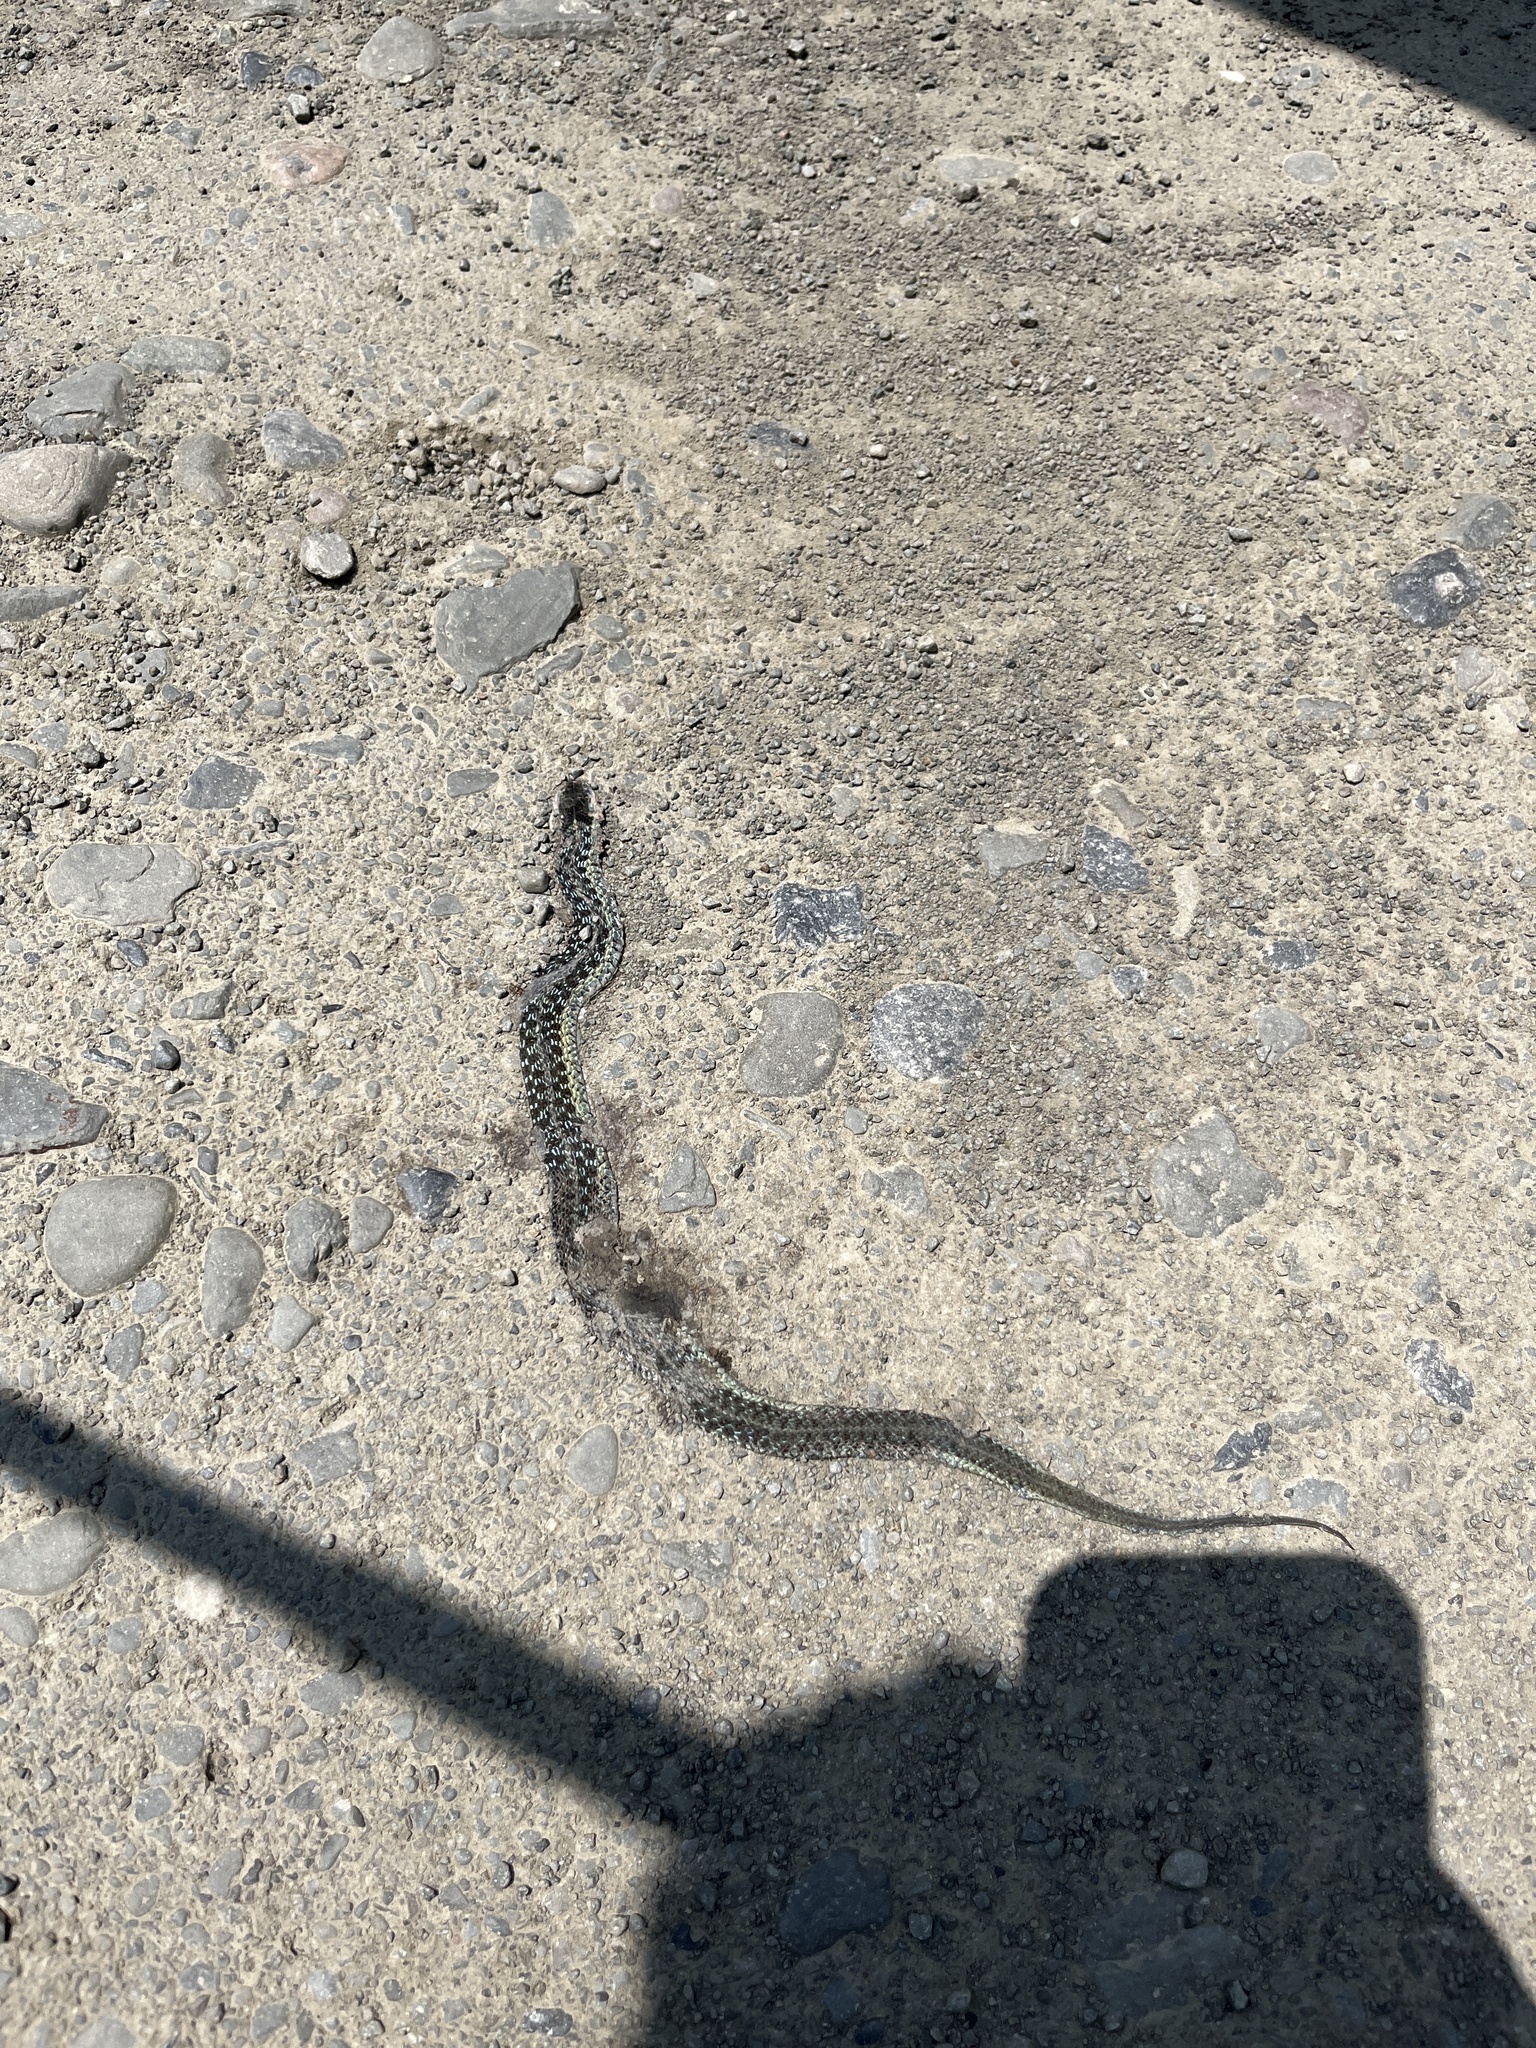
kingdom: Animalia
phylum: Chordata
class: Squamata
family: Colubridae
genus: Thamnophis
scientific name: Thamnophis sirtalis
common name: Common garter snake
